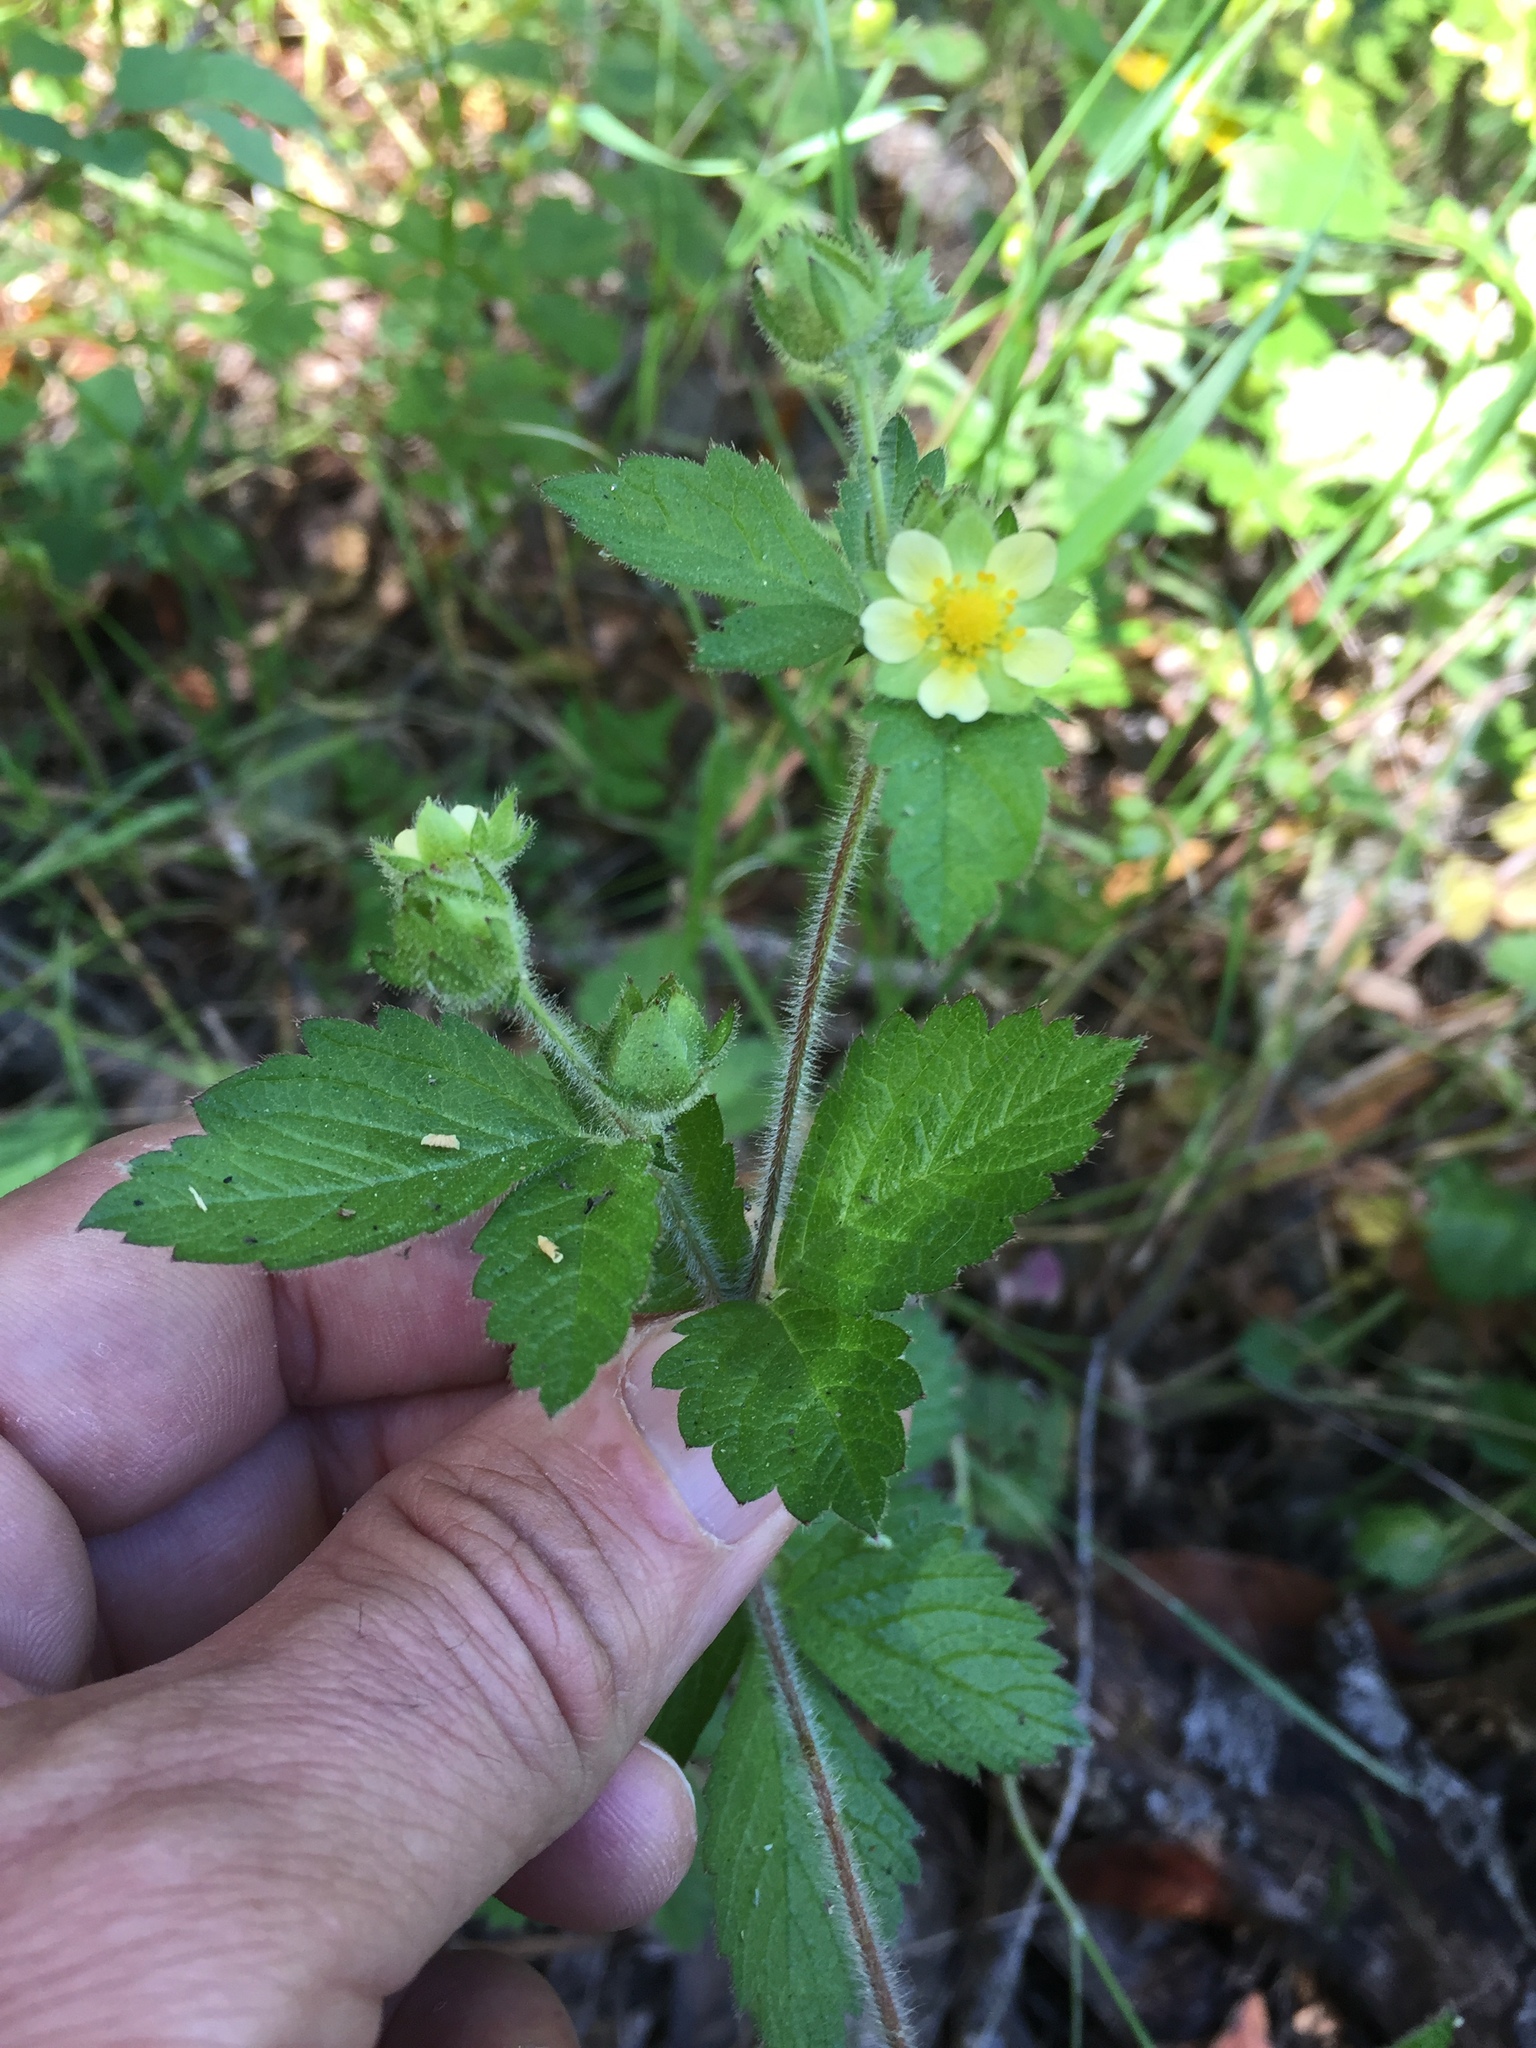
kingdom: Plantae
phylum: Tracheophyta
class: Magnoliopsida
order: Rosales
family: Rosaceae
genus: Drymocallis
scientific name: Drymocallis glandulosa
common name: Sticky cinquefoil
